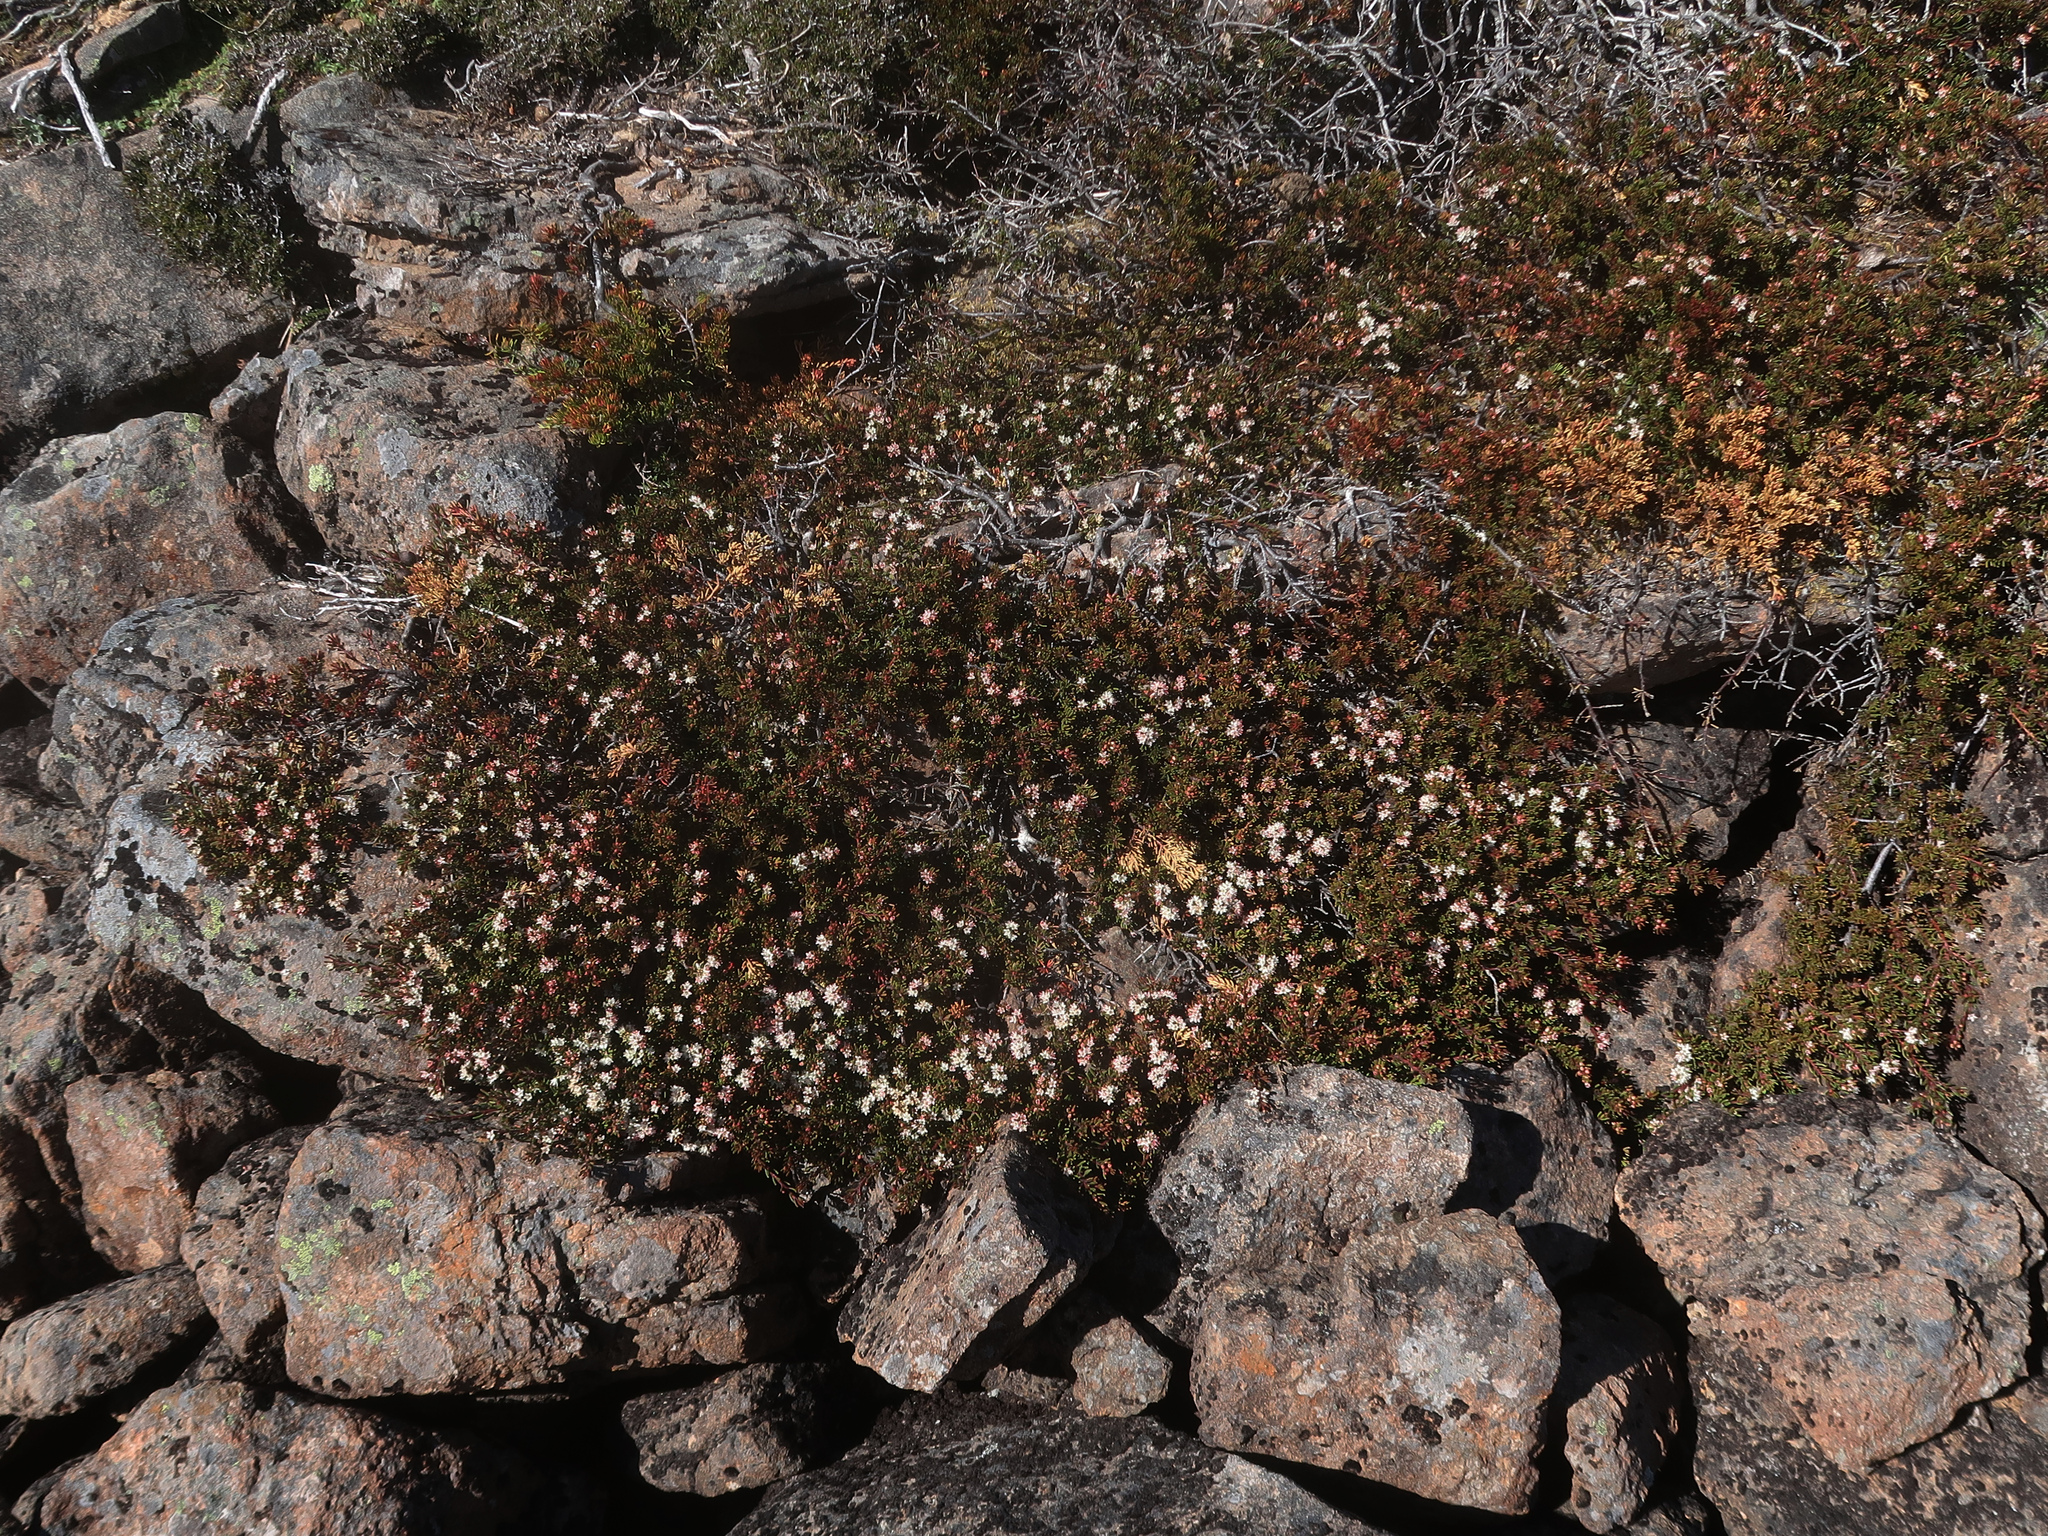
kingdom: Plantae
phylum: Tracheophyta
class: Magnoliopsida
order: Sapindales
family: Rutaceae
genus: Leionema
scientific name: Leionema montanum
